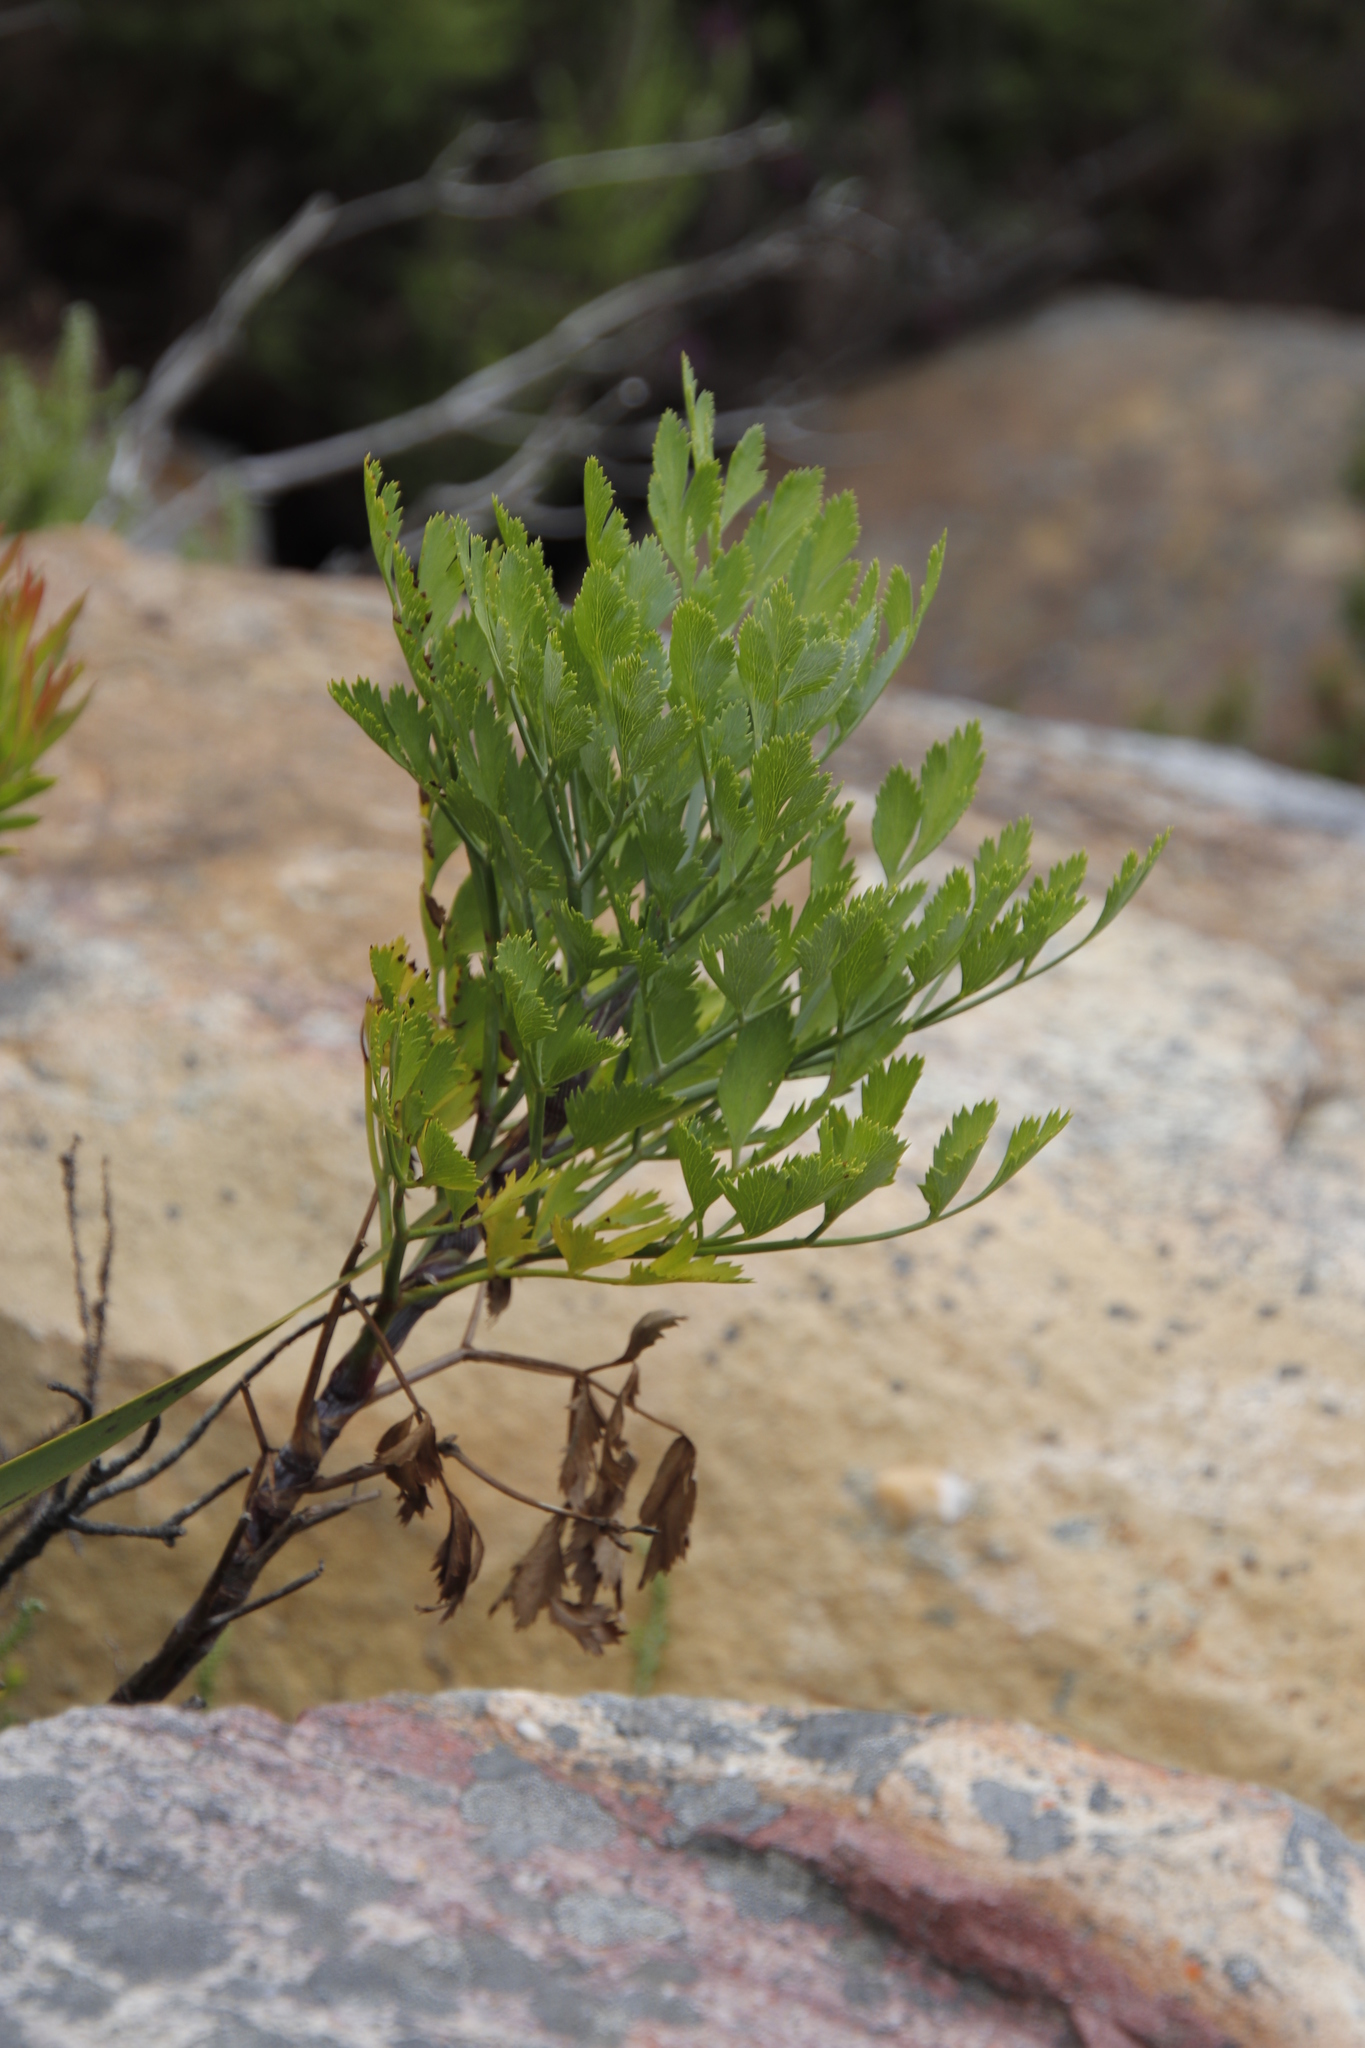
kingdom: Plantae
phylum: Tracheophyta
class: Magnoliopsida
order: Apiales
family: Apiaceae
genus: Notobubon
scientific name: Notobubon galbanum
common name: Blisterbush
